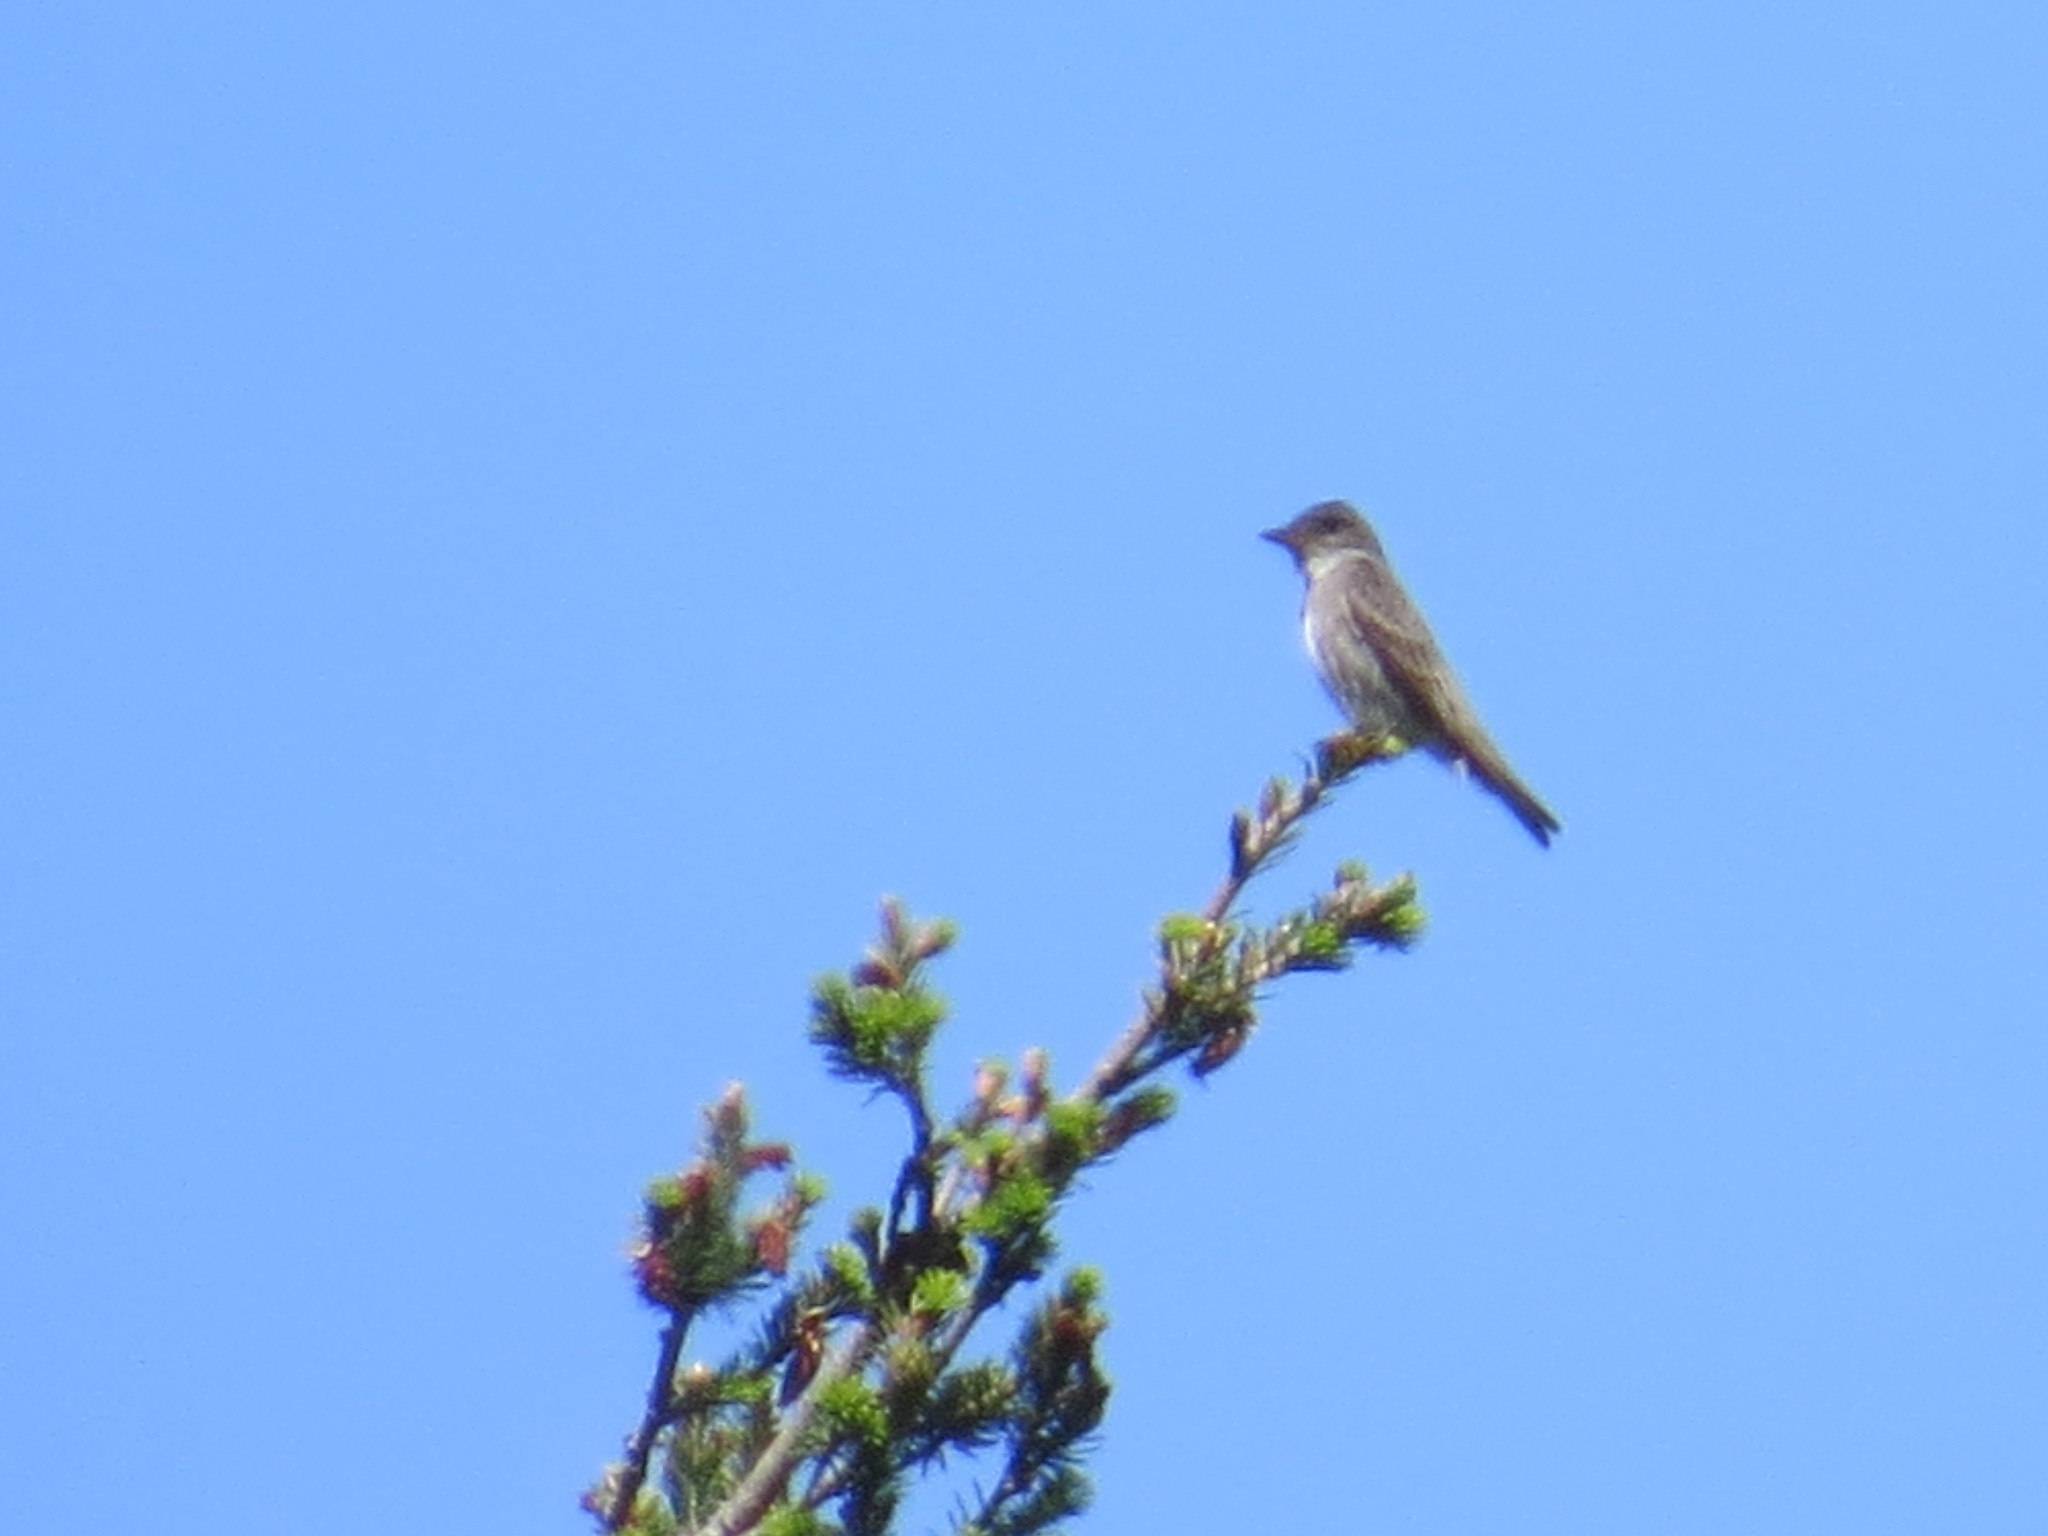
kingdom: Animalia
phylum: Chordata
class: Aves
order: Passeriformes
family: Tyrannidae
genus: Contopus
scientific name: Contopus cooperi
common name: Olive-sided flycatcher
